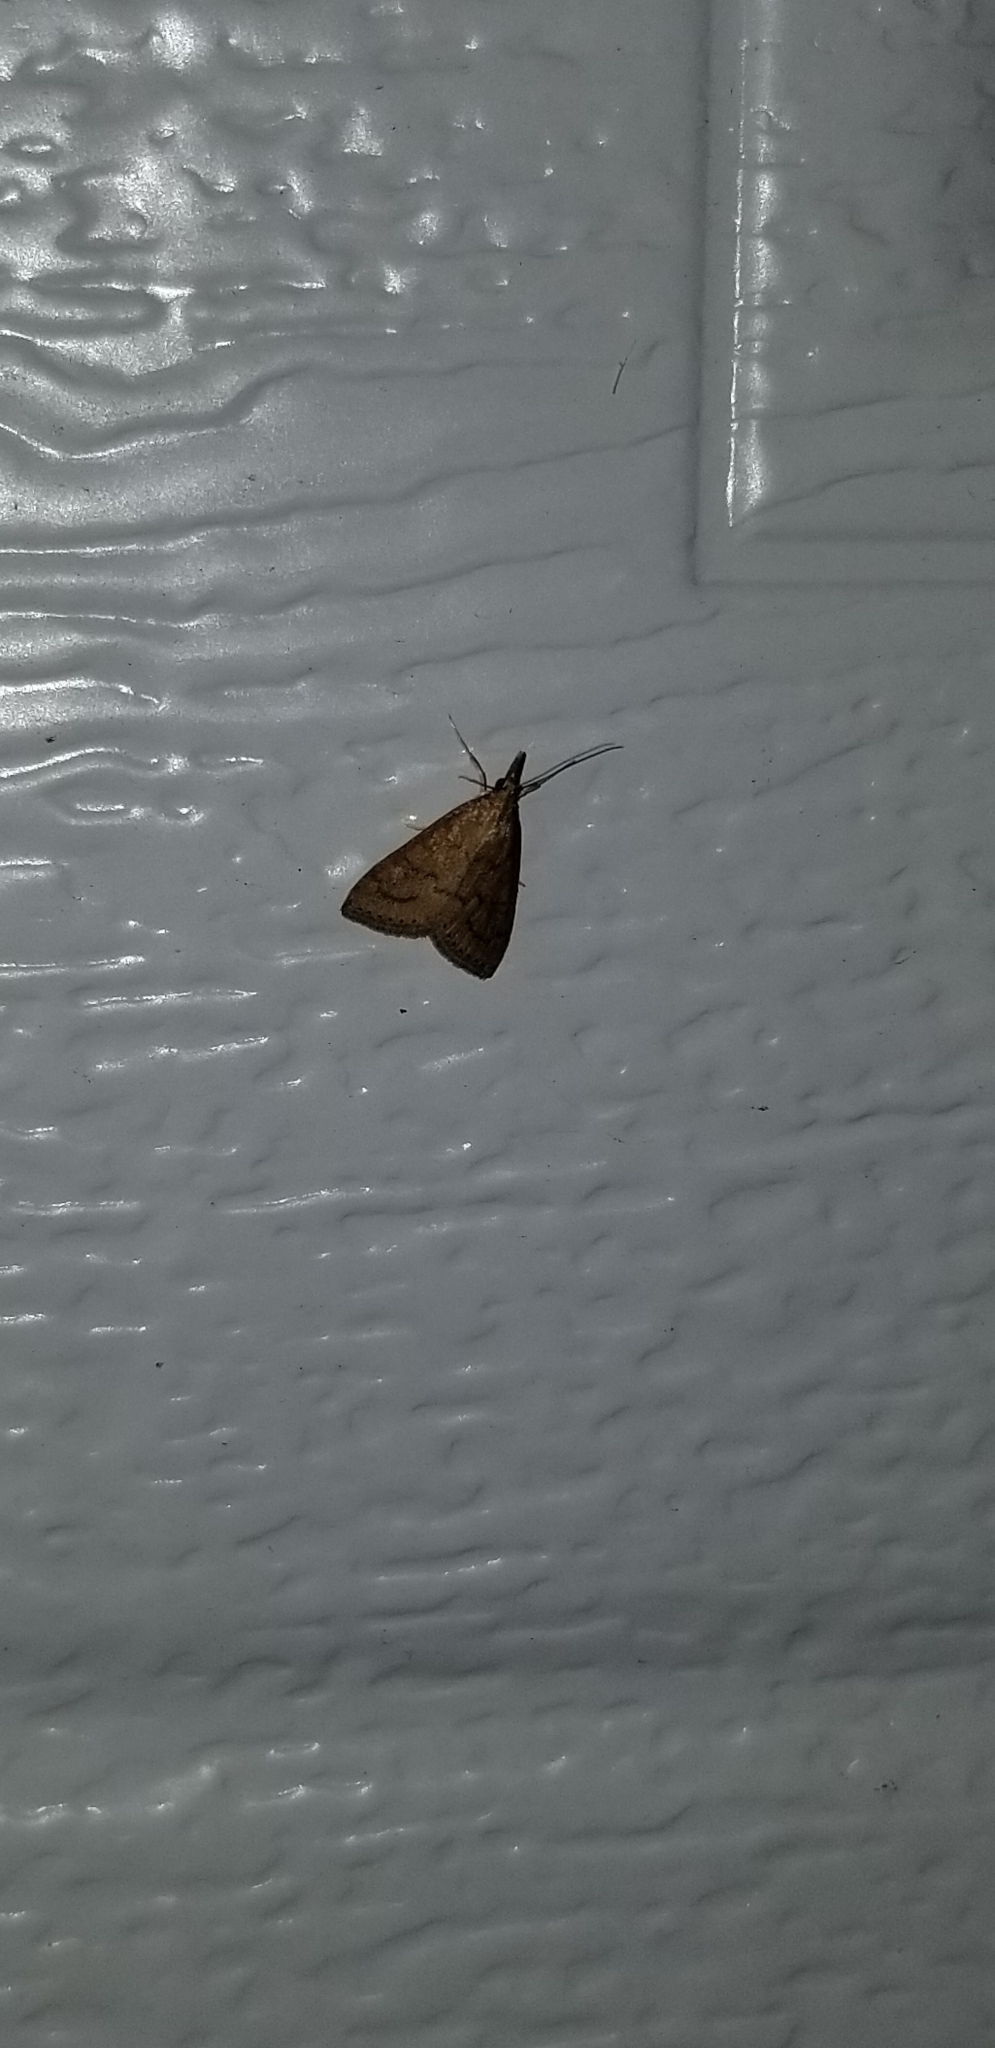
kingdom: Animalia
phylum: Arthropoda
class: Insecta
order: Lepidoptera
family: Crambidae
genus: Udea
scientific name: Udea rubigalis
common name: Celery leaftier moth
